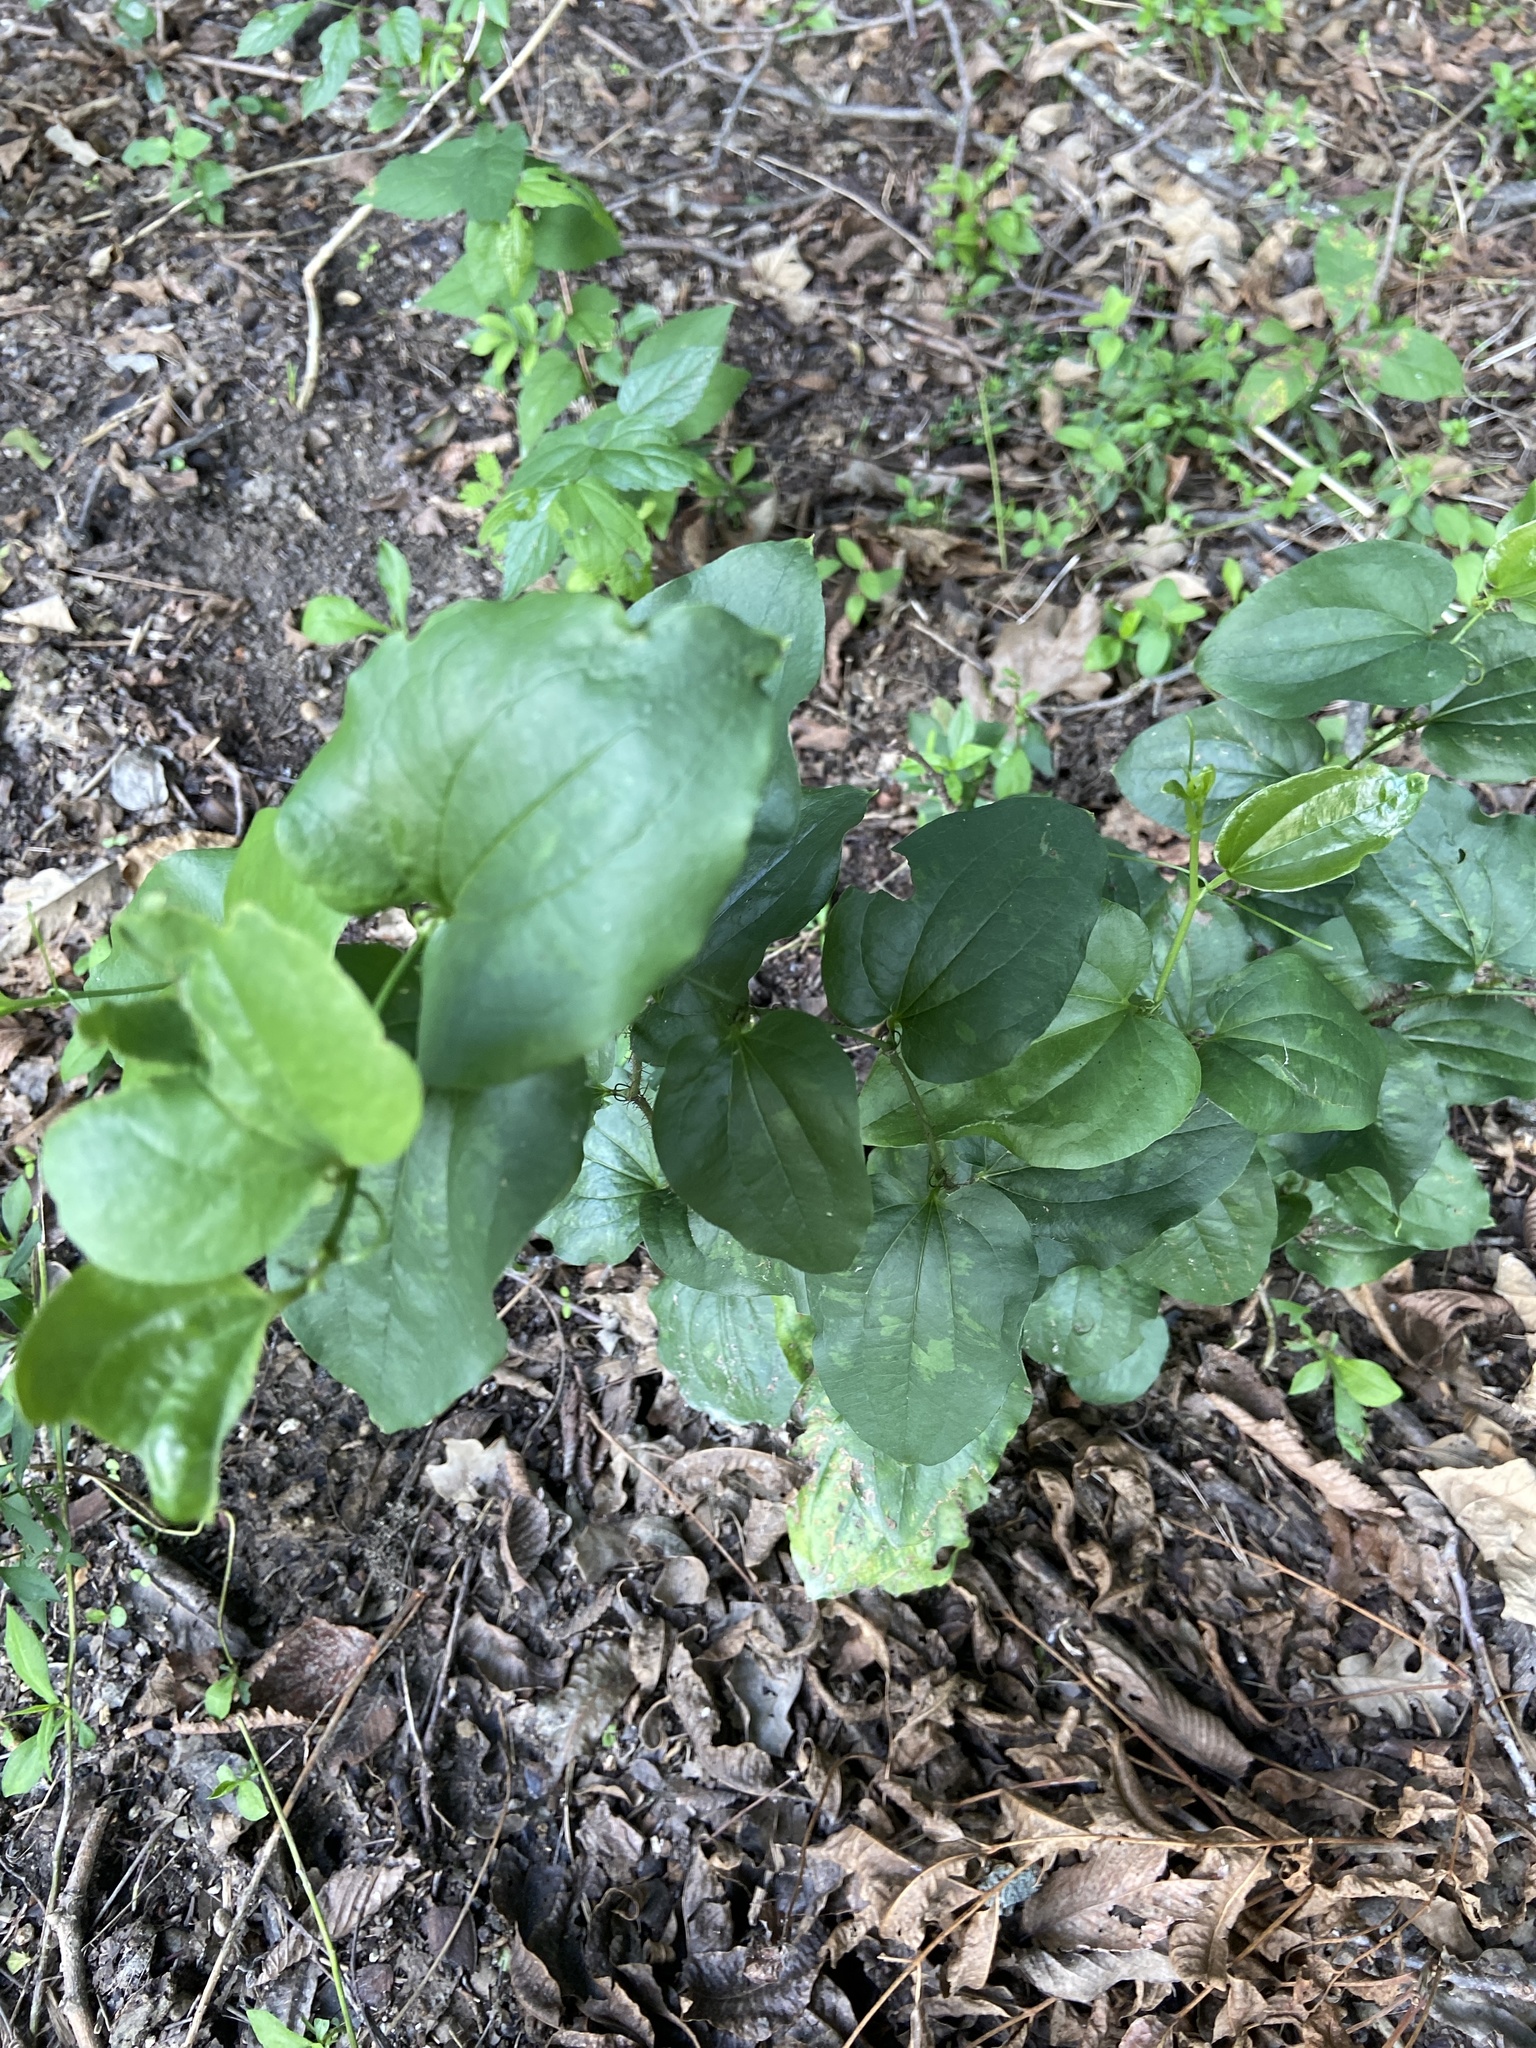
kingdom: Plantae
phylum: Tracheophyta
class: Liliopsida
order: Liliales
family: Smilacaceae
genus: Smilax
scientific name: Smilax tamnoides
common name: Hellfetter
